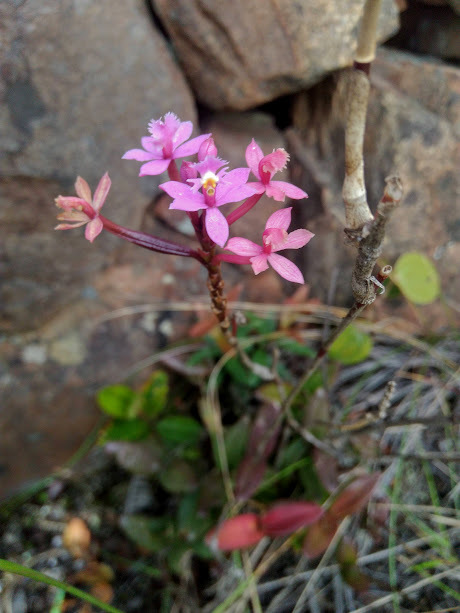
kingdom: Plantae
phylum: Tracheophyta
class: Liliopsida
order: Asparagales
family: Orchidaceae
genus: Epidendrum
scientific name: Epidendrum arachnoglossum
